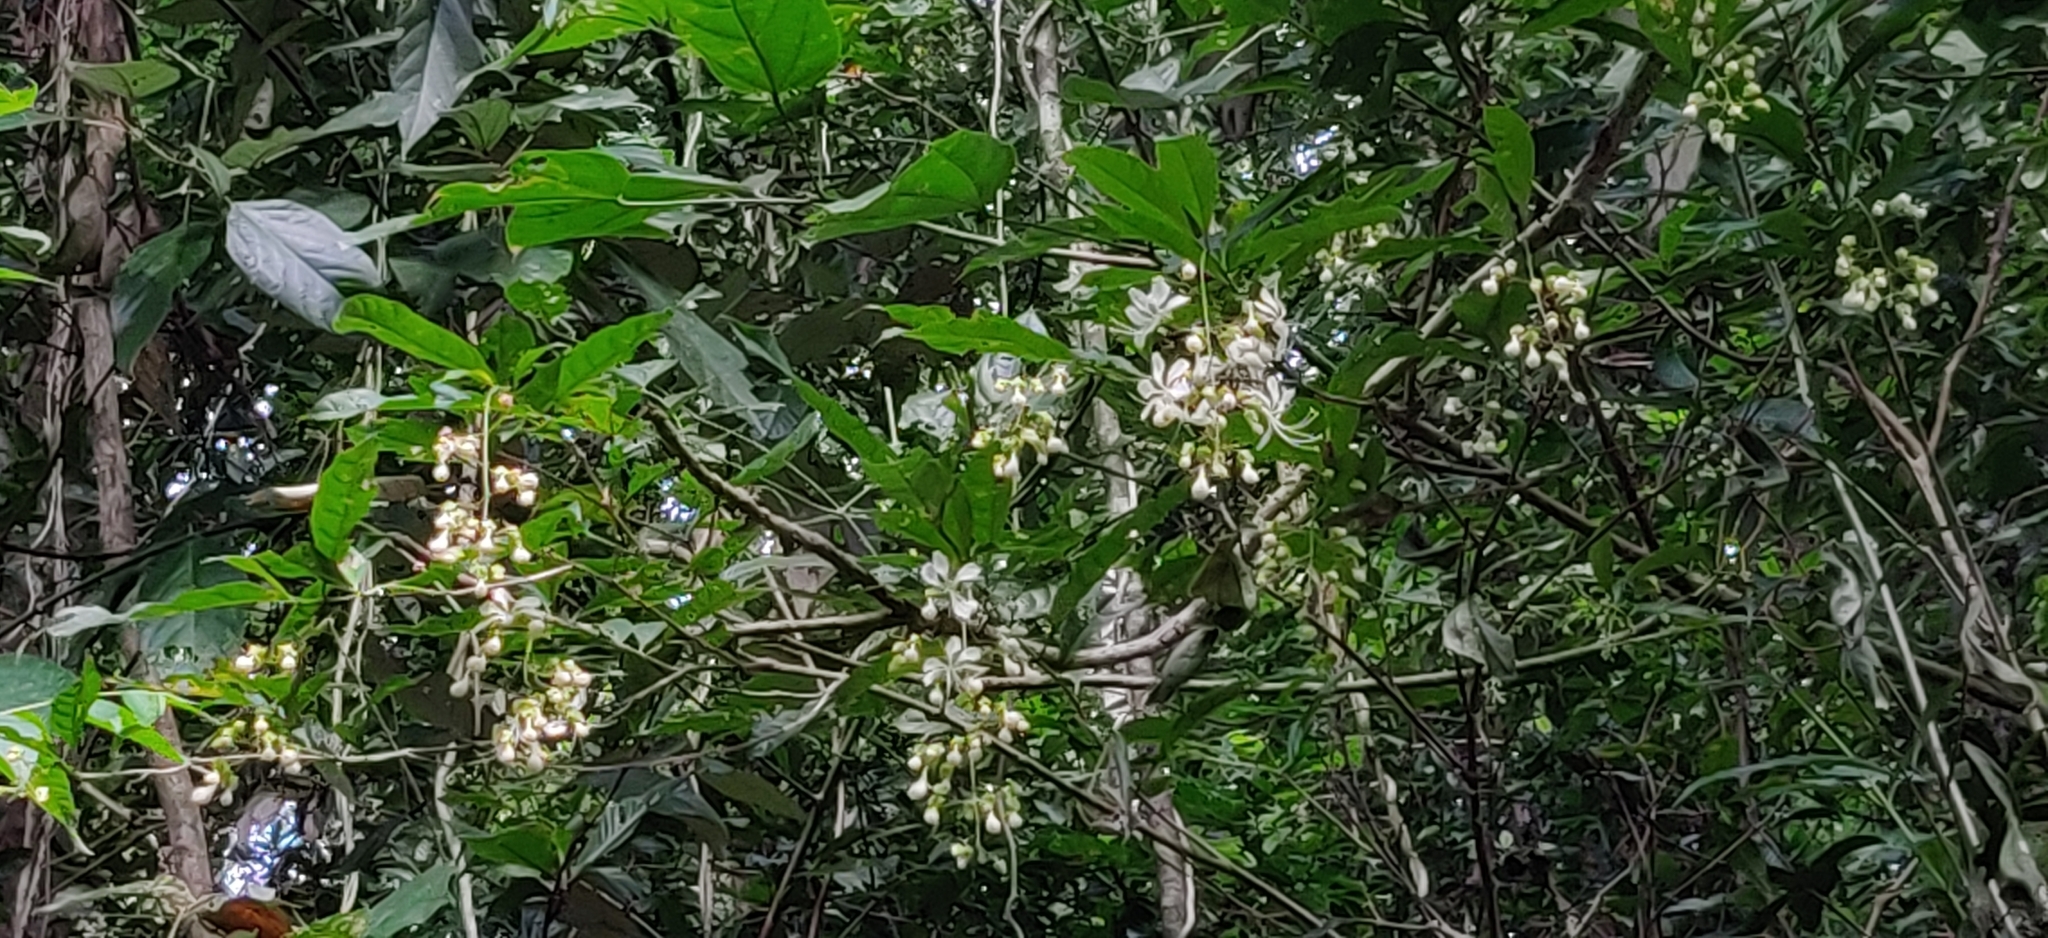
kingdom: Plantae
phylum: Tracheophyta
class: Magnoliopsida
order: Lamiales
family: Lamiaceae
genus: Clerodendrum
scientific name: Clerodendrum nutans
